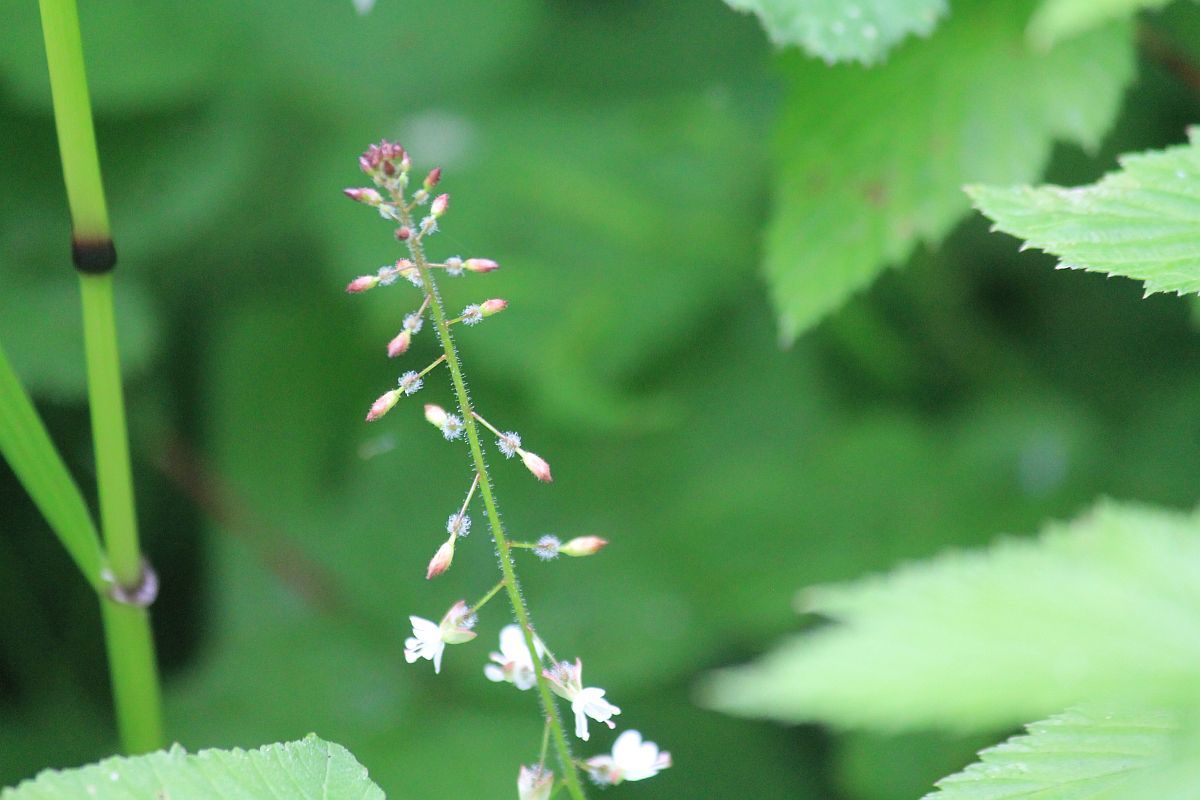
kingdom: Plantae
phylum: Tracheophyta
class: Magnoliopsida
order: Myrtales
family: Onagraceae
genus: Circaea
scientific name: Circaea lutetiana
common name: Enchanter's-nightshade
